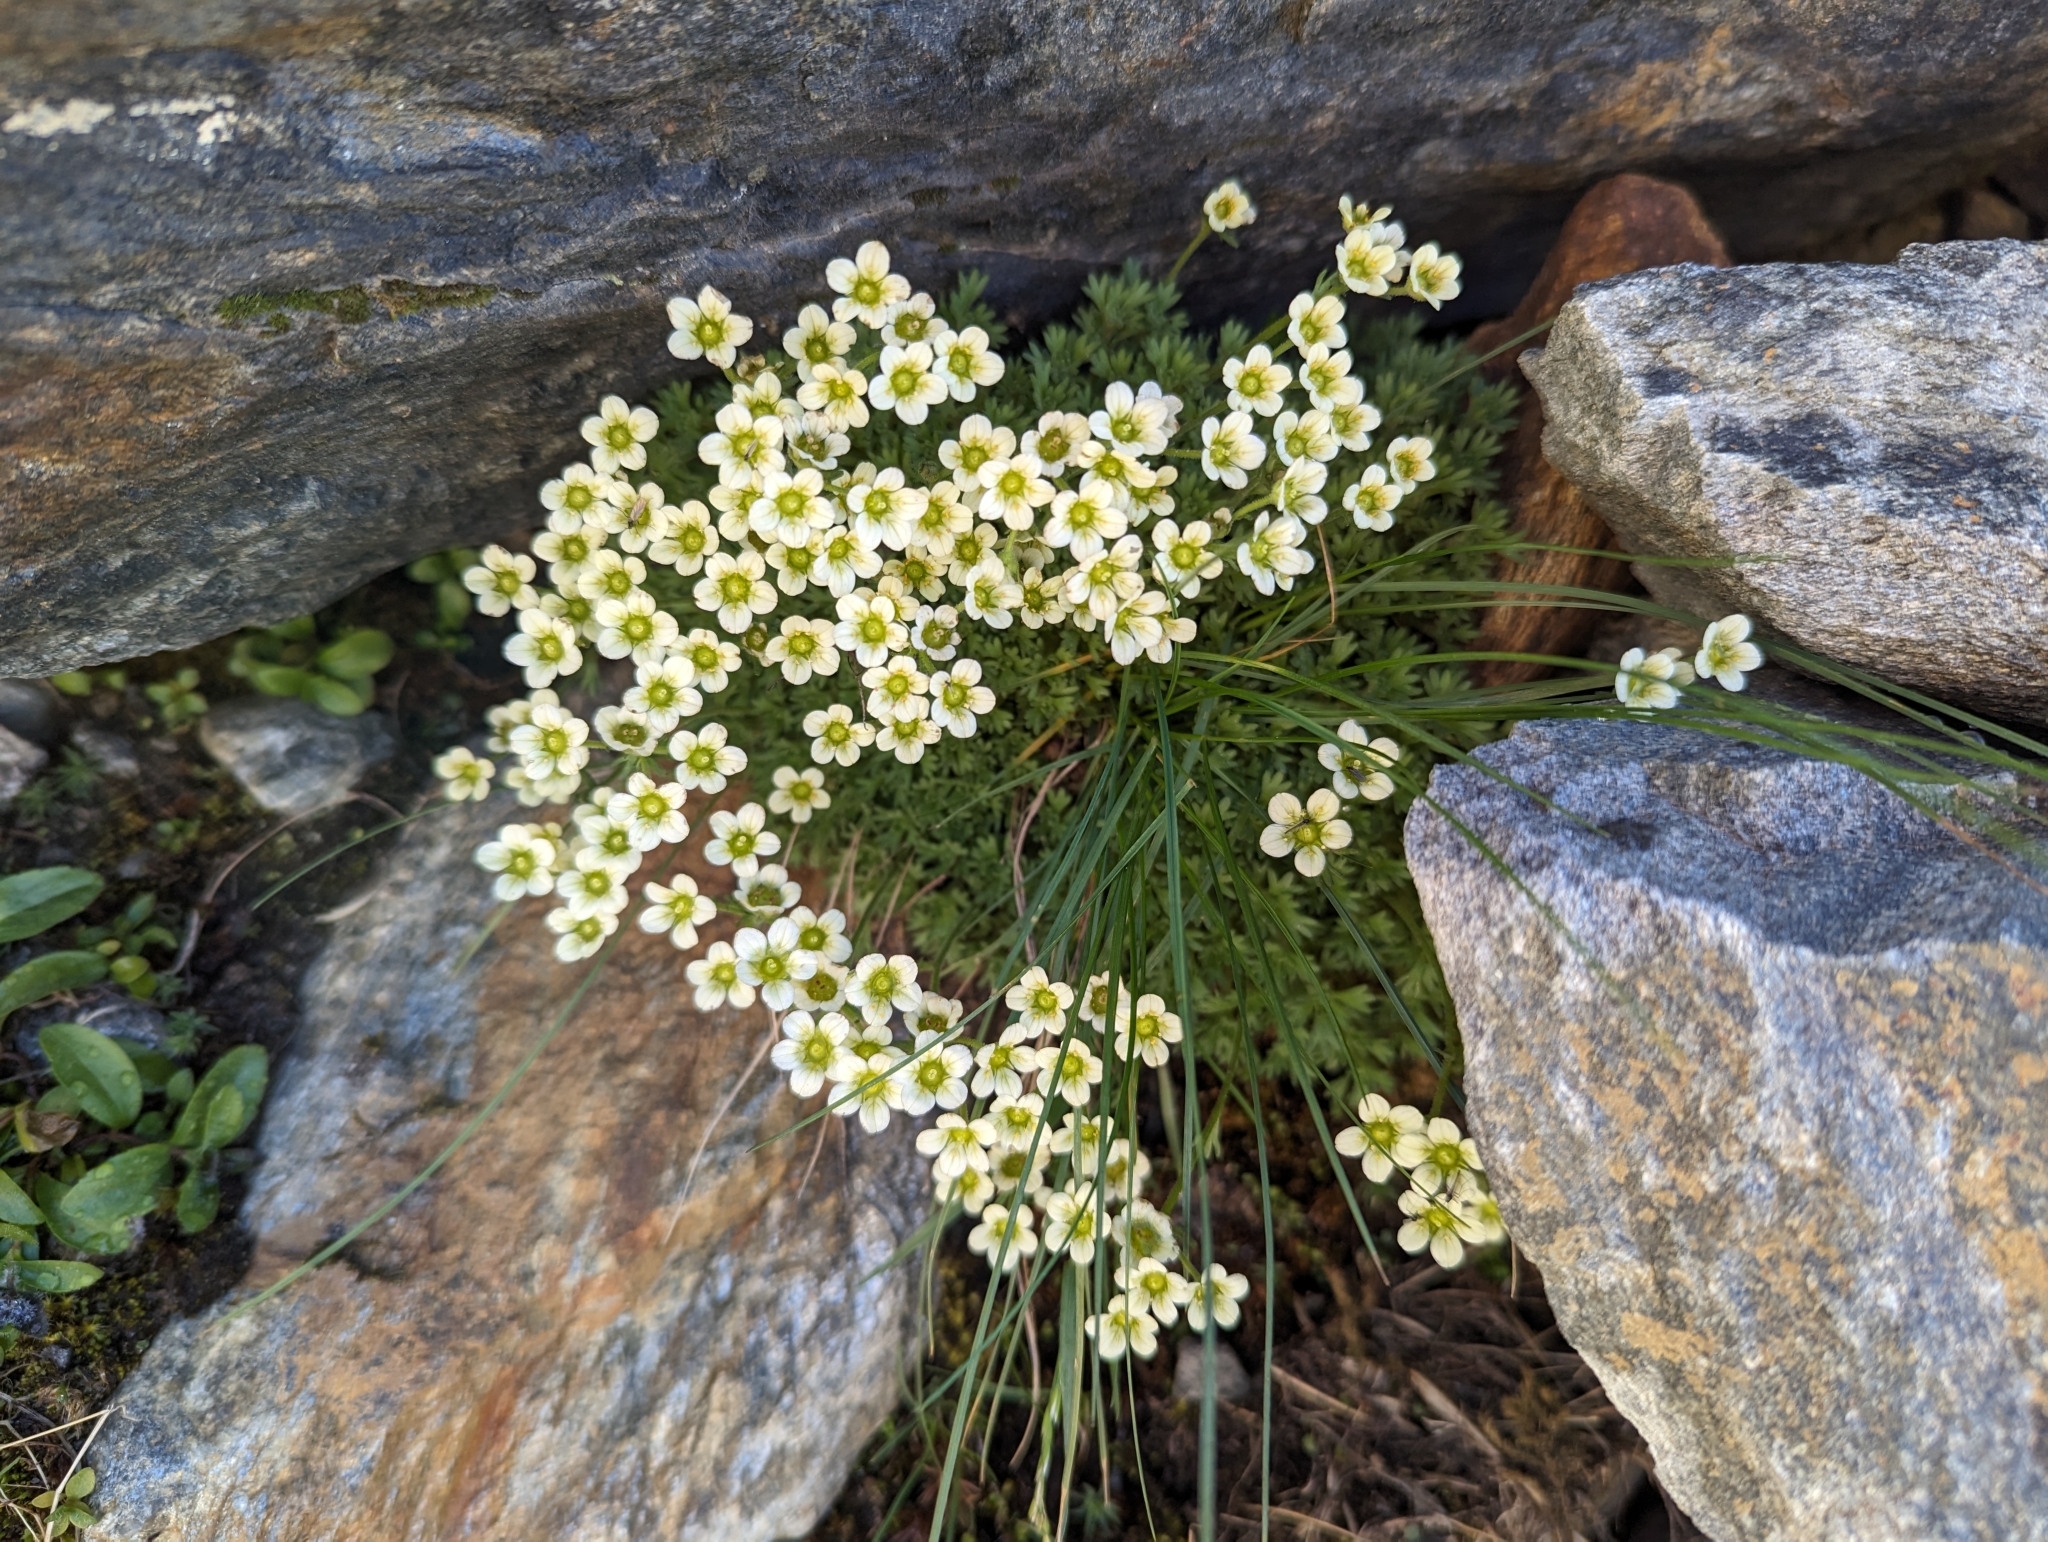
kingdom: Plantae
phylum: Tracheophyta
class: Magnoliopsida
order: Saxifragales
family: Saxifragaceae
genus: Saxifraga
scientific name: Saxifraga exarata
